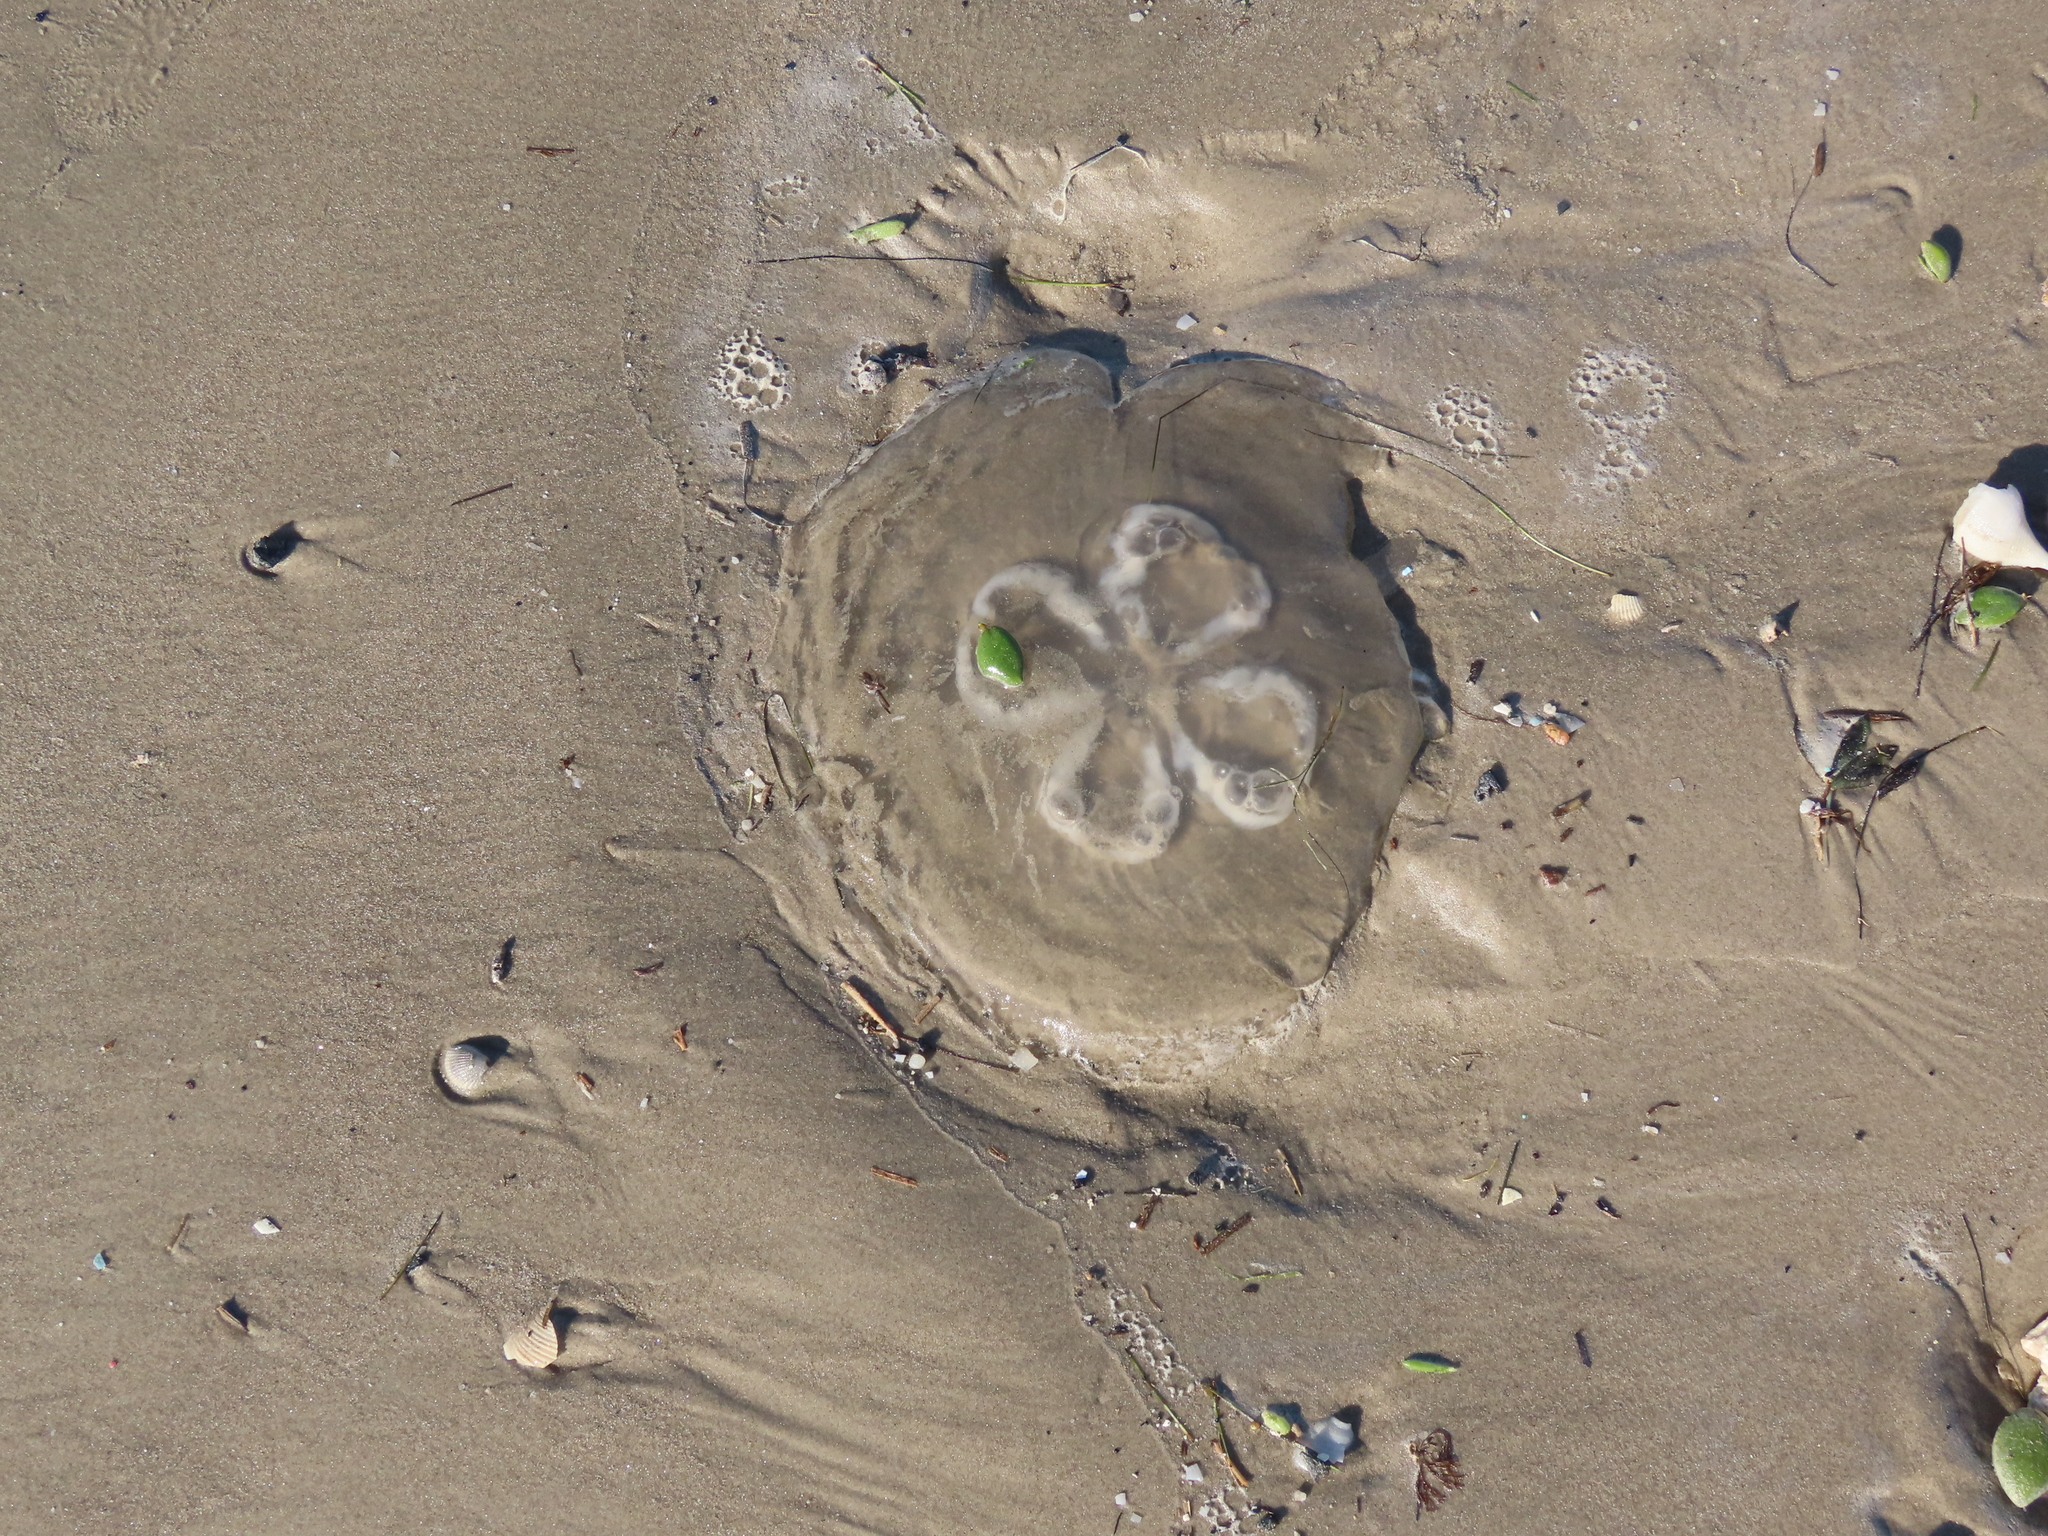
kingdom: Animalia
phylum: Cnidaria
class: Scyphozoa
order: Semaeostomeae
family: Ulmaridae
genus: Aurelia
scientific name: Aurelia marginalis
